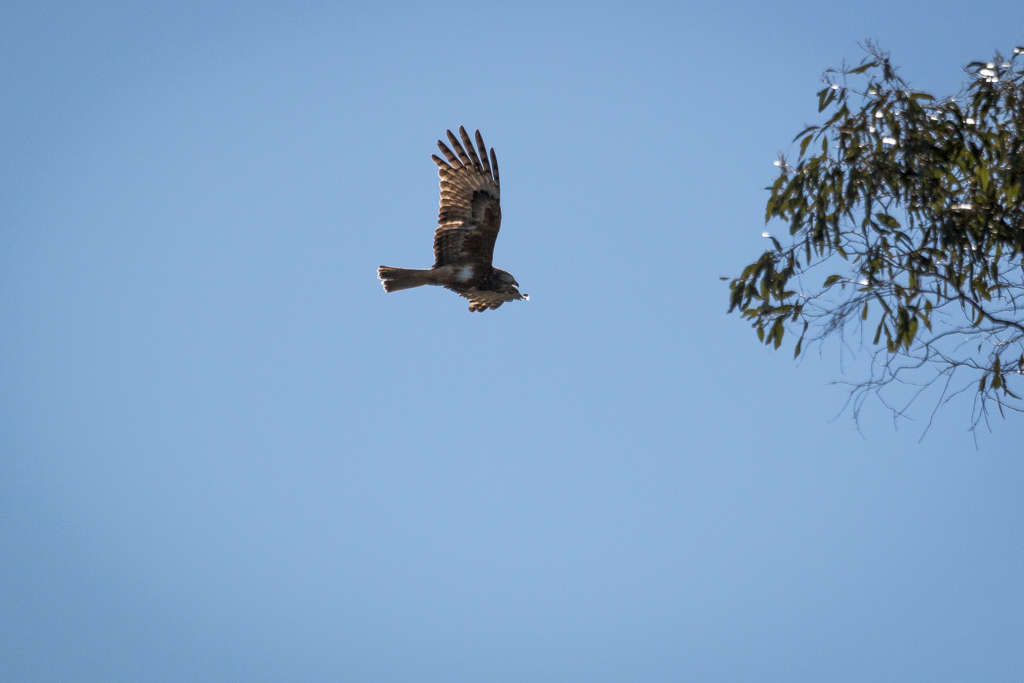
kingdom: Animalia
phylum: Chordata
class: Aves
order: Accipitriformes
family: Accipitridae
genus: Lophoictinia
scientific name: Lophoictinia isura
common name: Square-tailed kite
